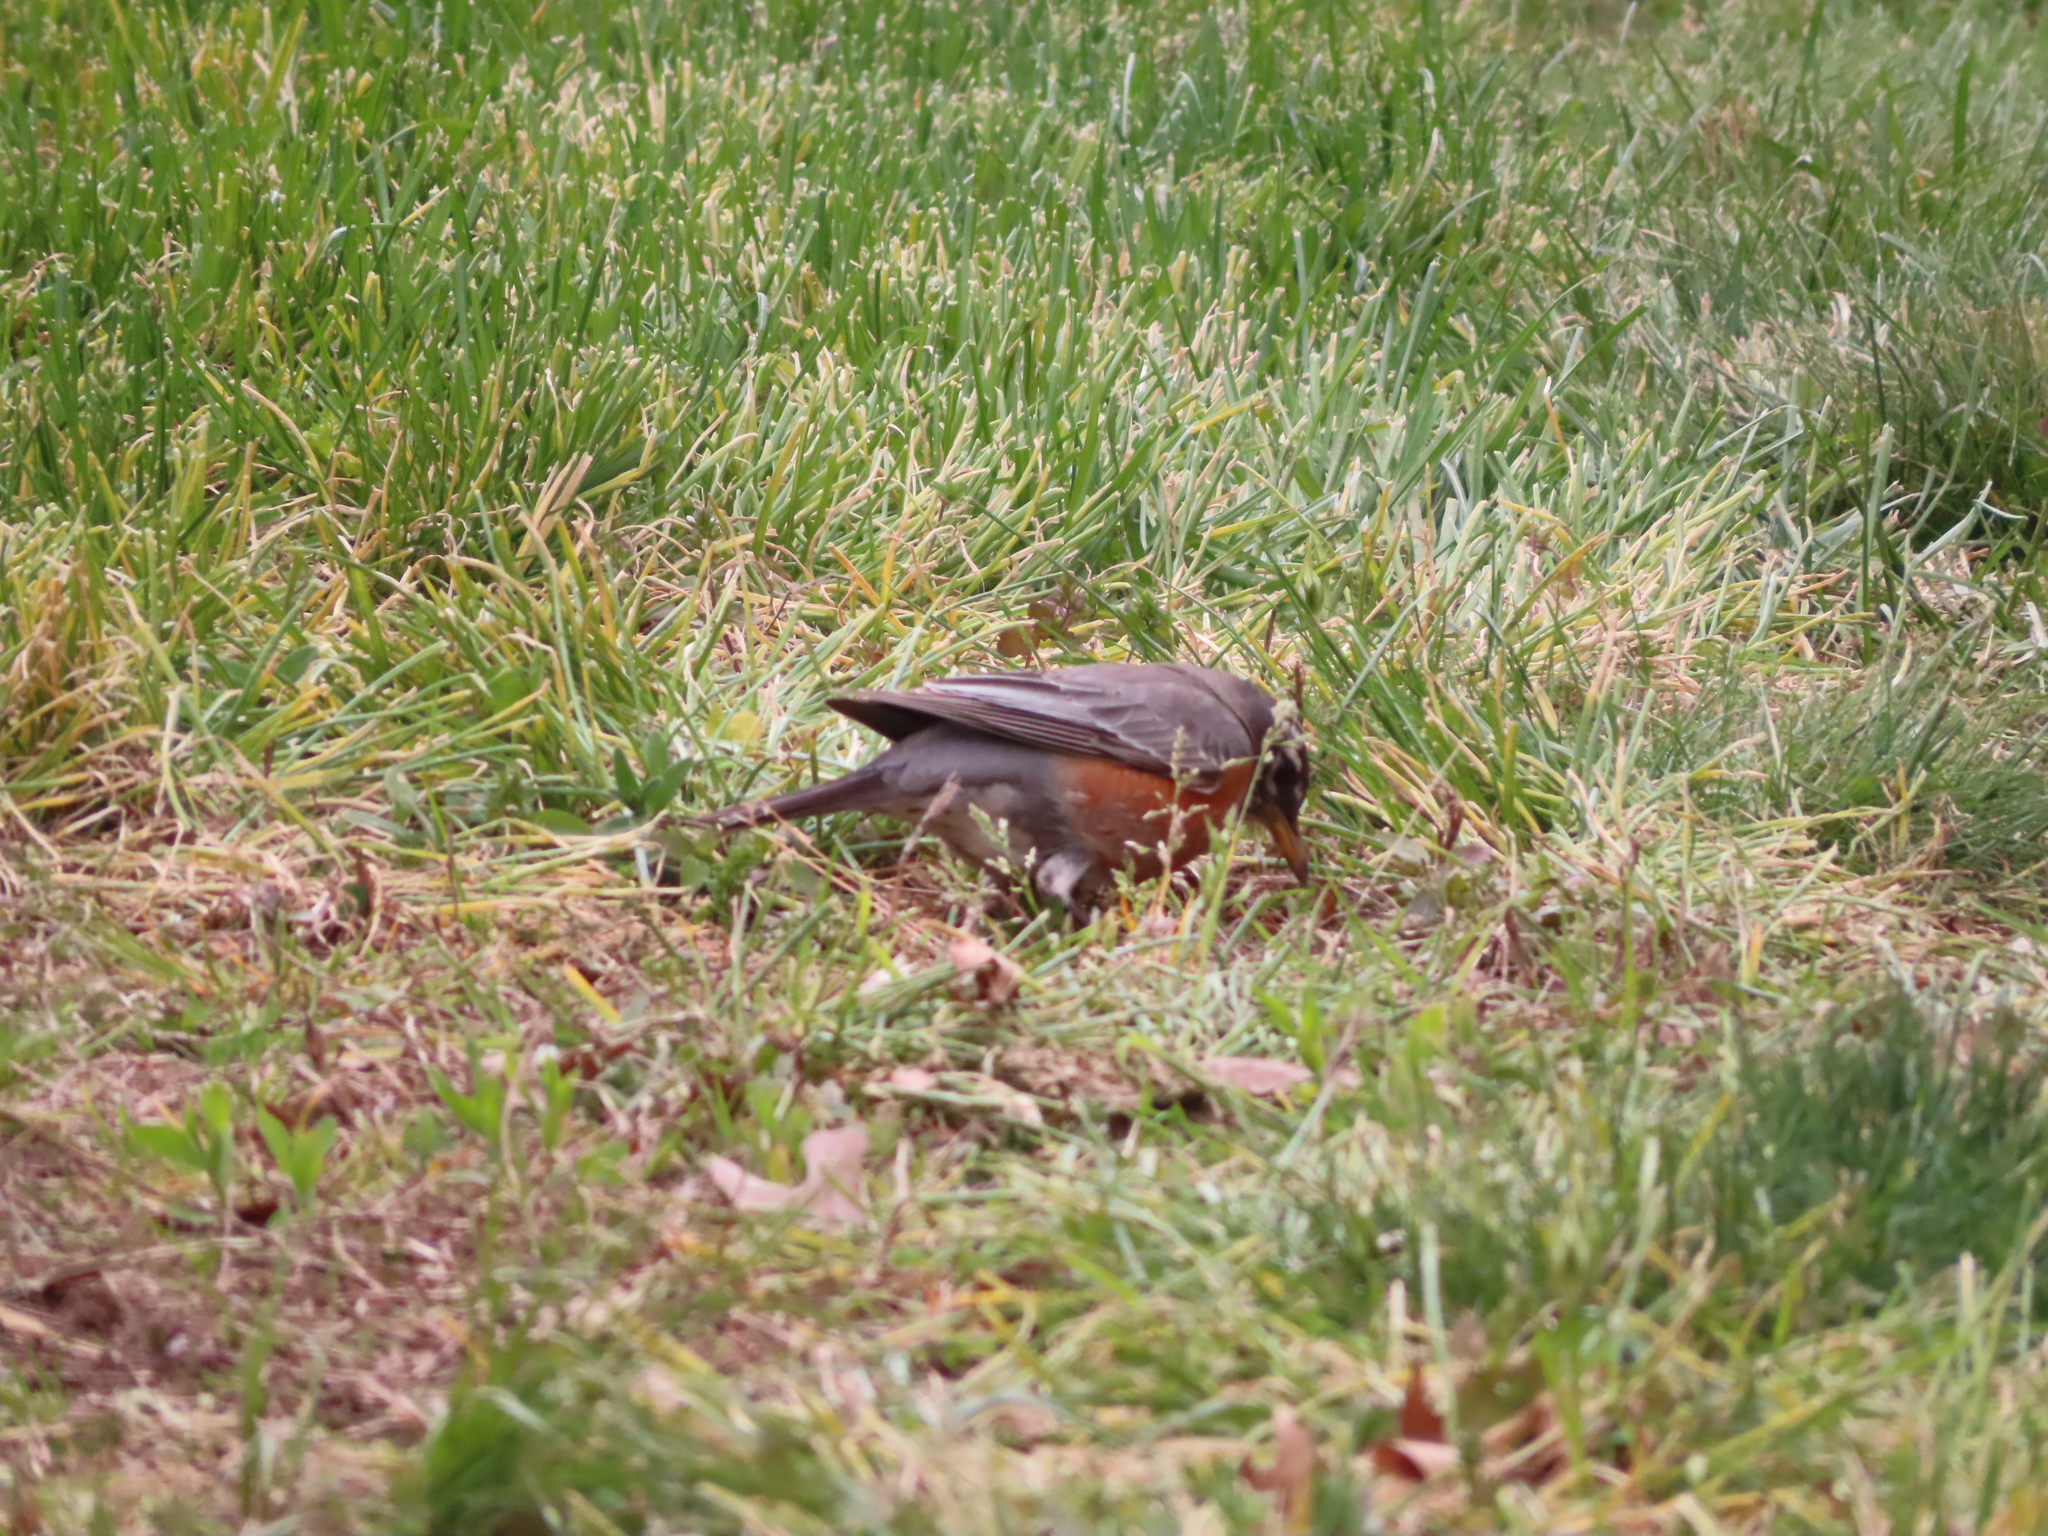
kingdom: Animalia
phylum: Chordata
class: Aves
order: Passeriformes
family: Turdidae
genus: Turdus
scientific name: Turdus migratorius
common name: American robin
